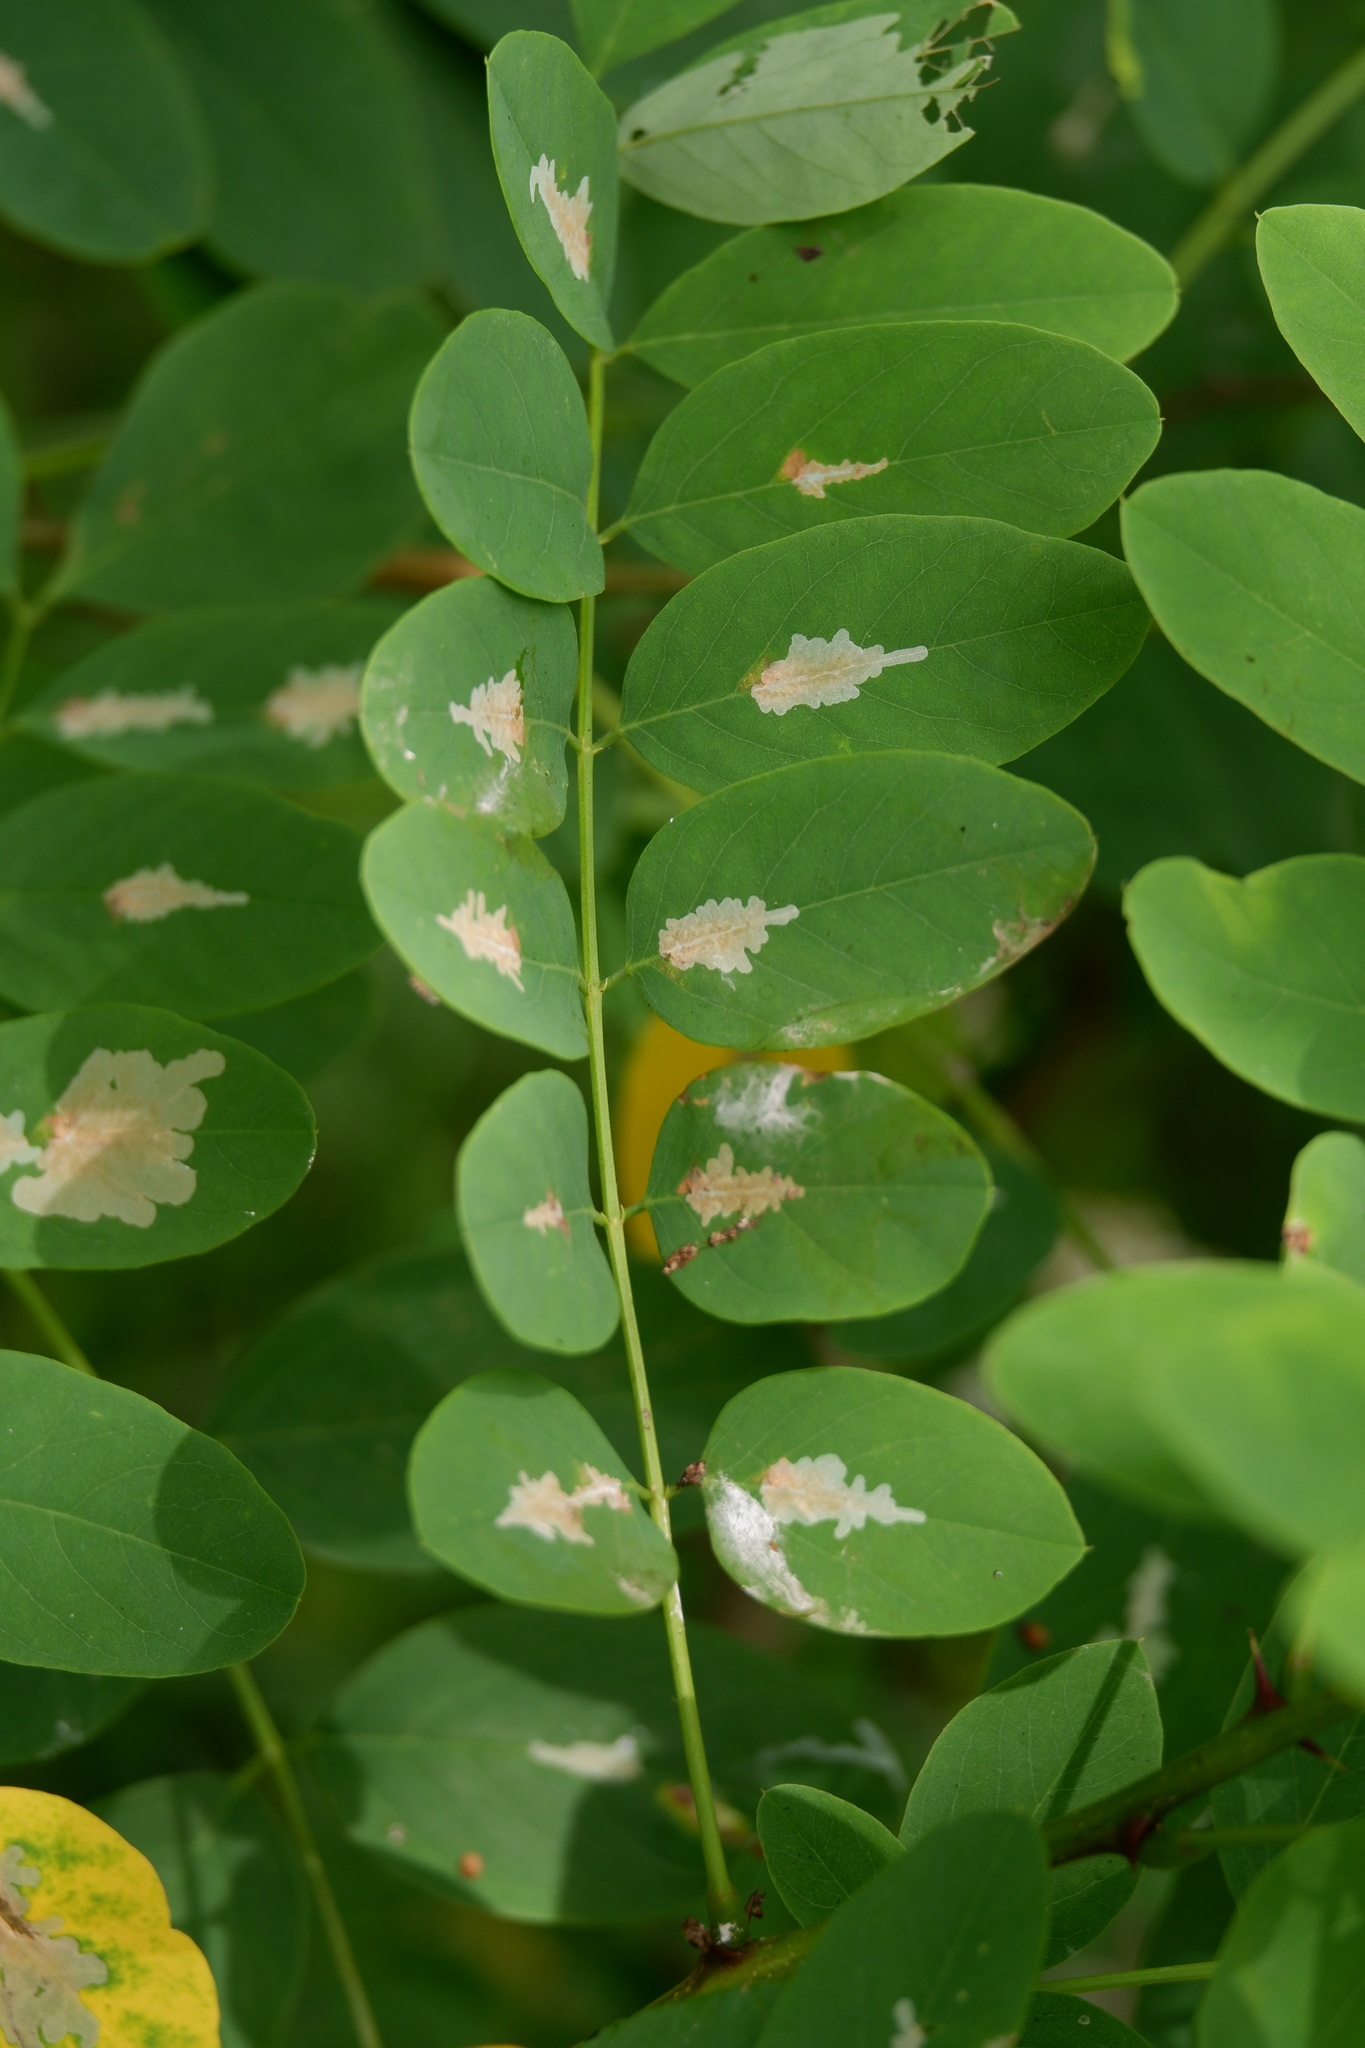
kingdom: Animalia
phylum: Arthropoda
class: Insecta
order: Lepidoptera
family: Gracillariidae
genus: Parectopa
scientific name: Parectopa robiniella
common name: Locust digitate leafminer
